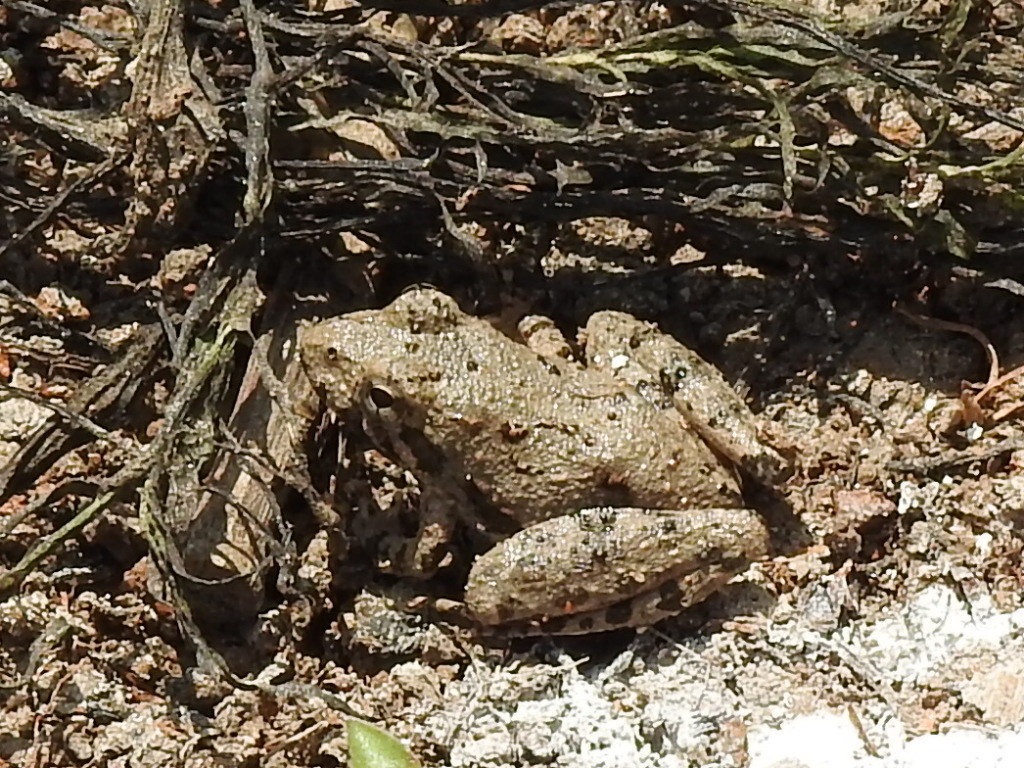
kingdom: Animalia
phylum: Chordata
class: Amphibia
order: Anura
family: Hylidae
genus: Acris
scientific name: Acris blanchardi
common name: Blanchard's cricket frog
